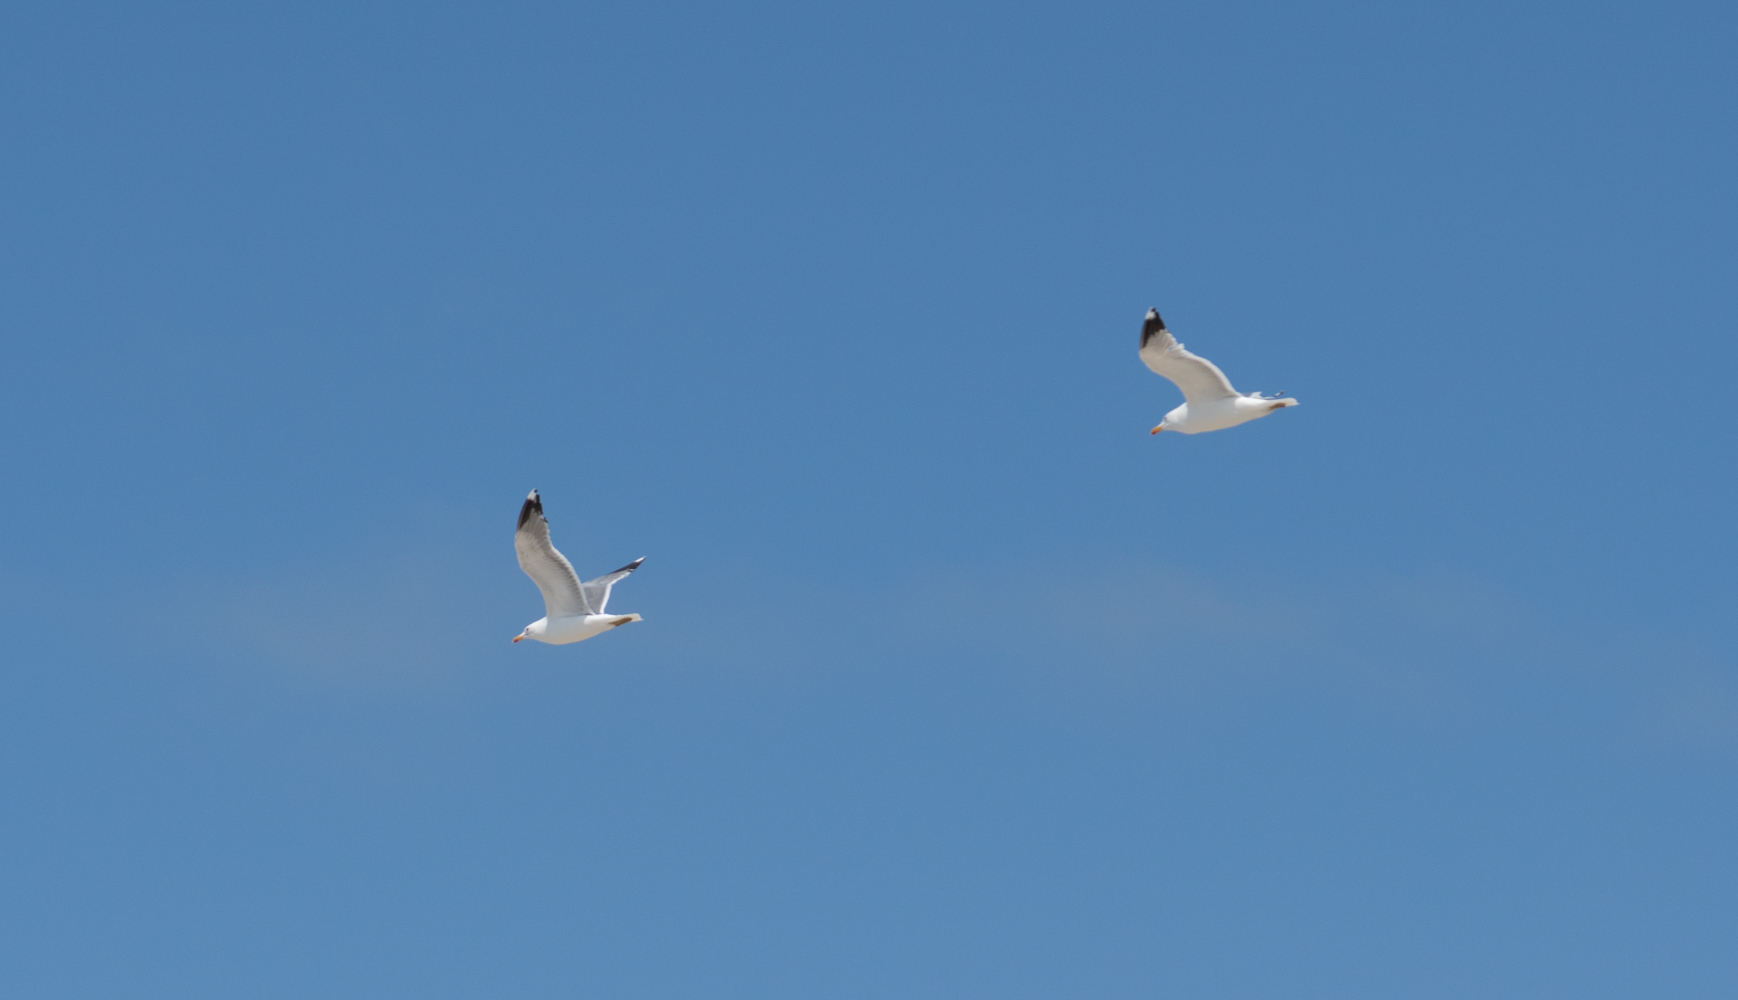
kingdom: Animalia
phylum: Chordata
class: Aves
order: Charadriiformes
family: Laridae
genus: Larus
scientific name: Larus californicus
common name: California gull
